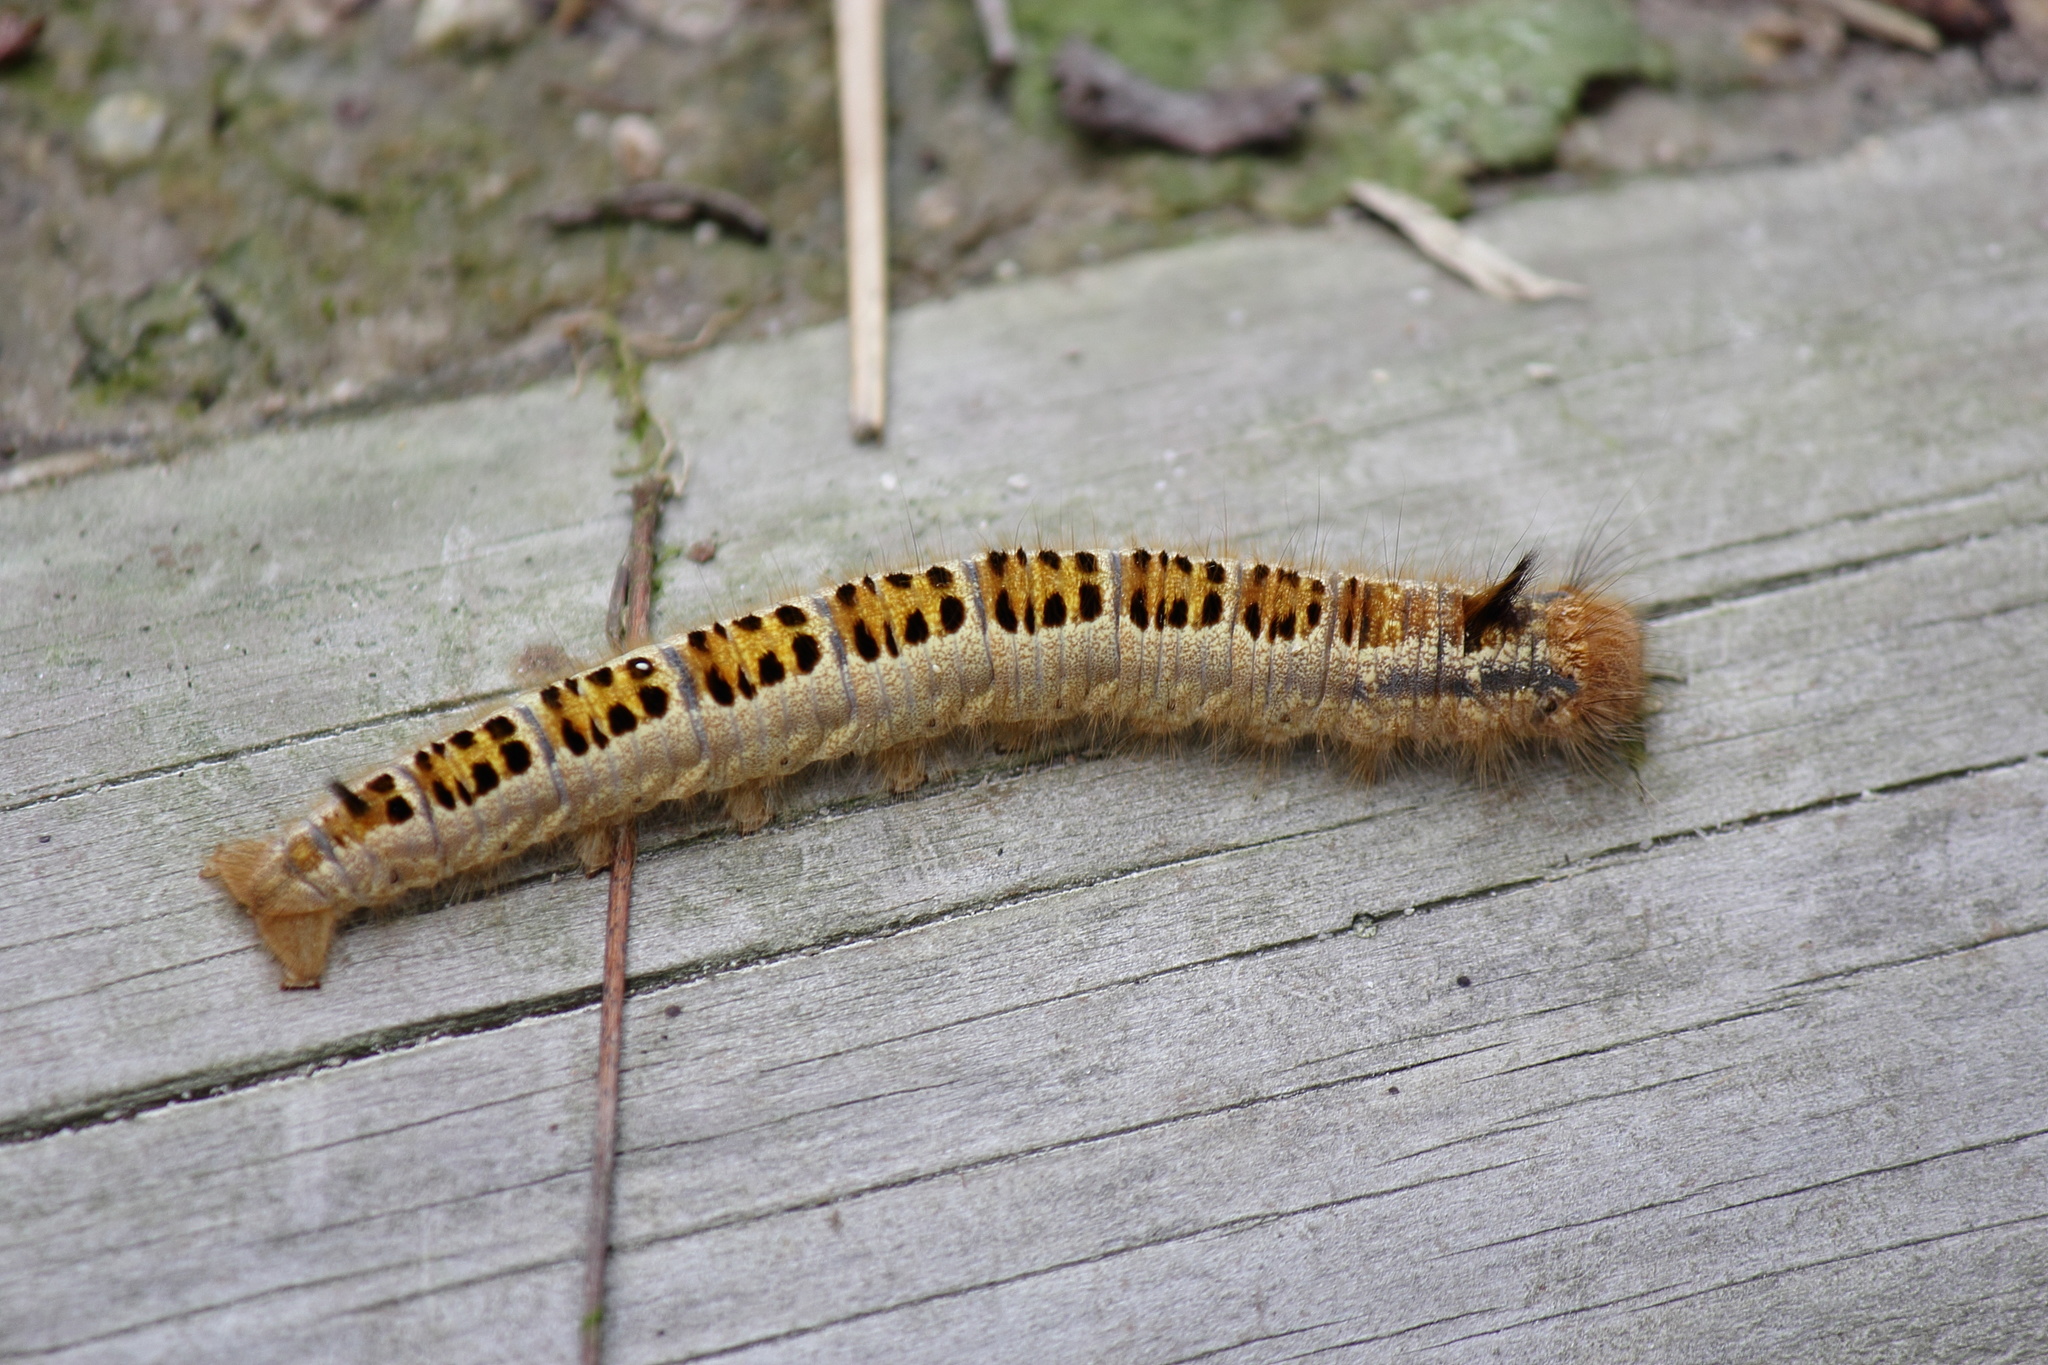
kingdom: Animalia
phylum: Arthropoda
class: Insecta
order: Lepidoptera
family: Lasiocampidae
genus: Euthrix
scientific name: Euthrix albomaculata
